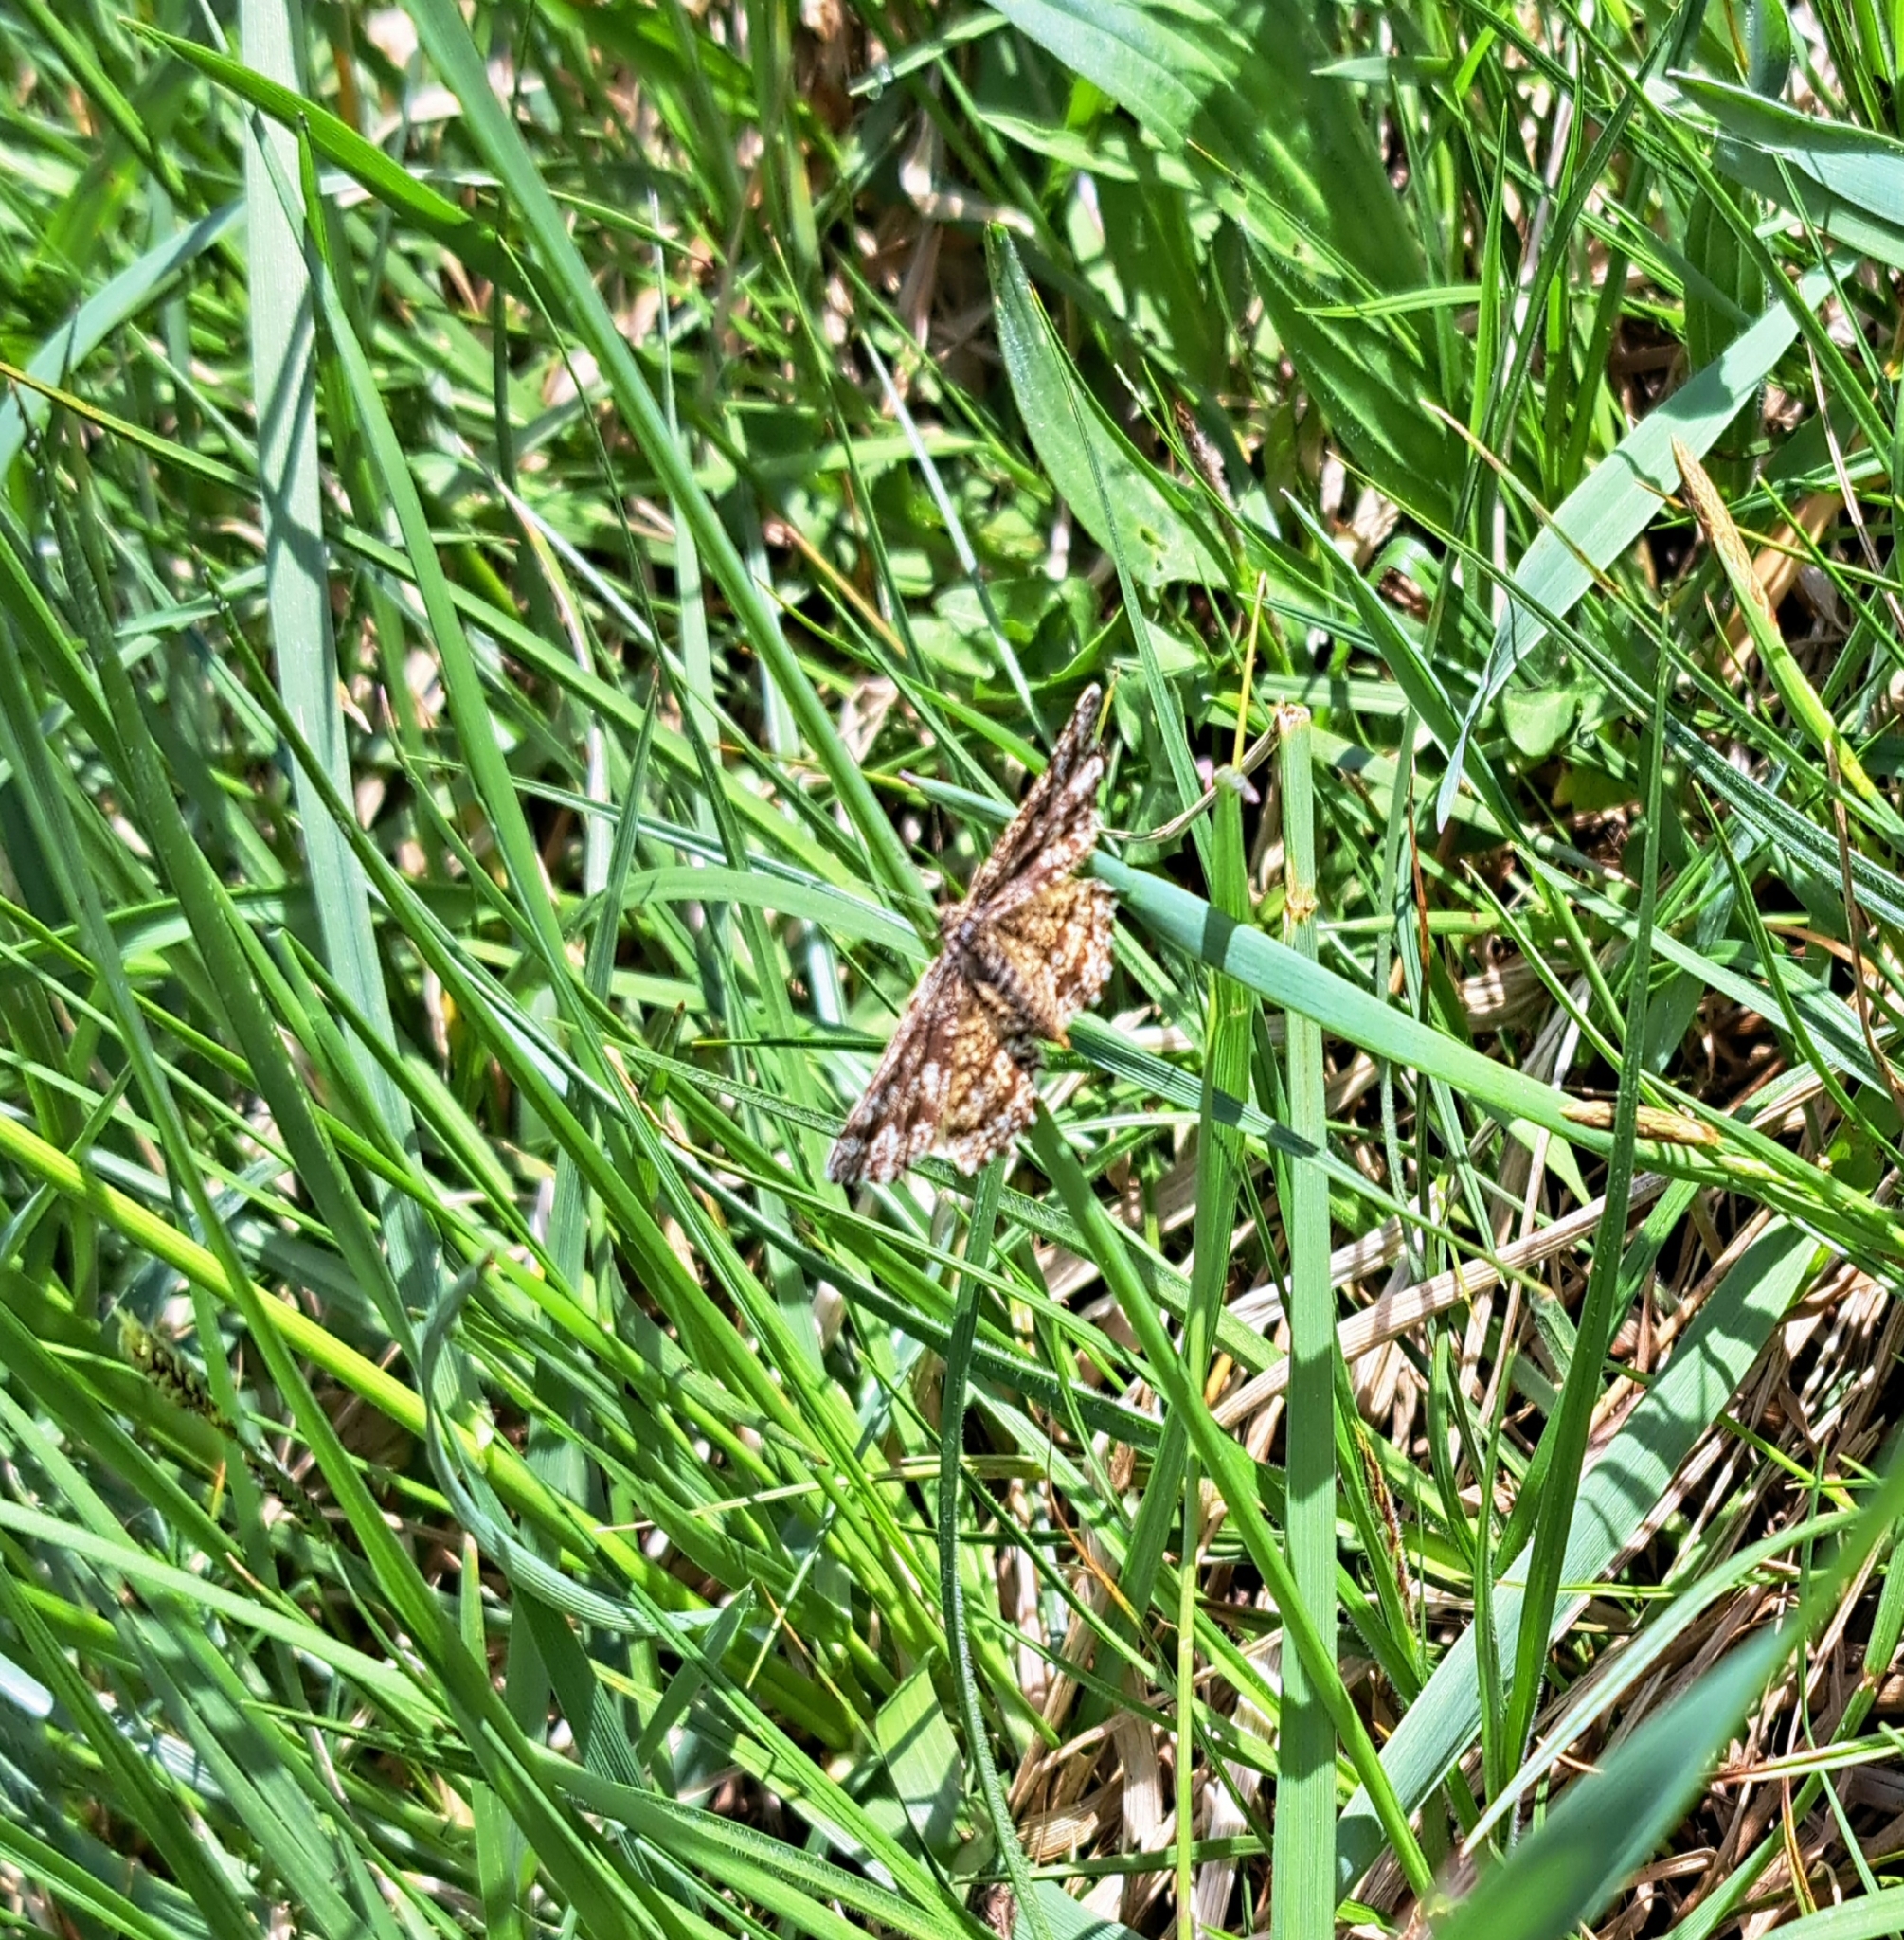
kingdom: Animalia
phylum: Arthropoda
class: Insecta
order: Lepidoptera
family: Geometridae
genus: Ematurga
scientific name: Ematurga atomaria
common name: Common heath
